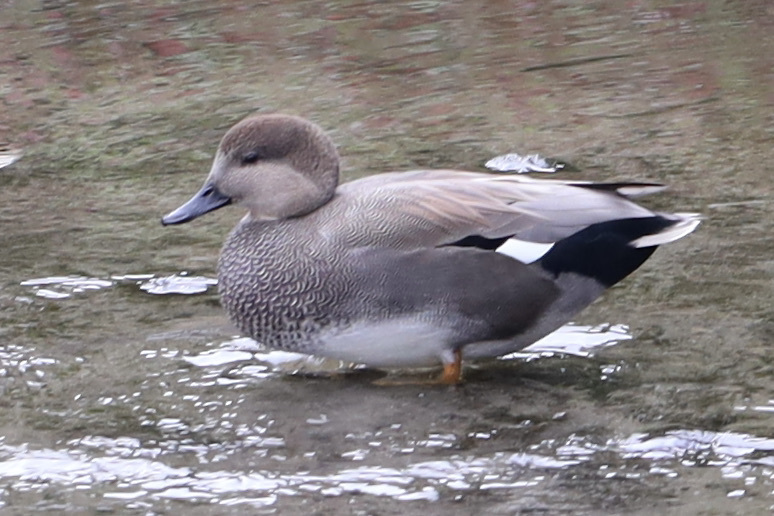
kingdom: Animalia
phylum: Chordata
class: Aves
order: Anseriformes
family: Anatidae
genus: Mareca
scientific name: Mareca strepera
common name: Gadwall
